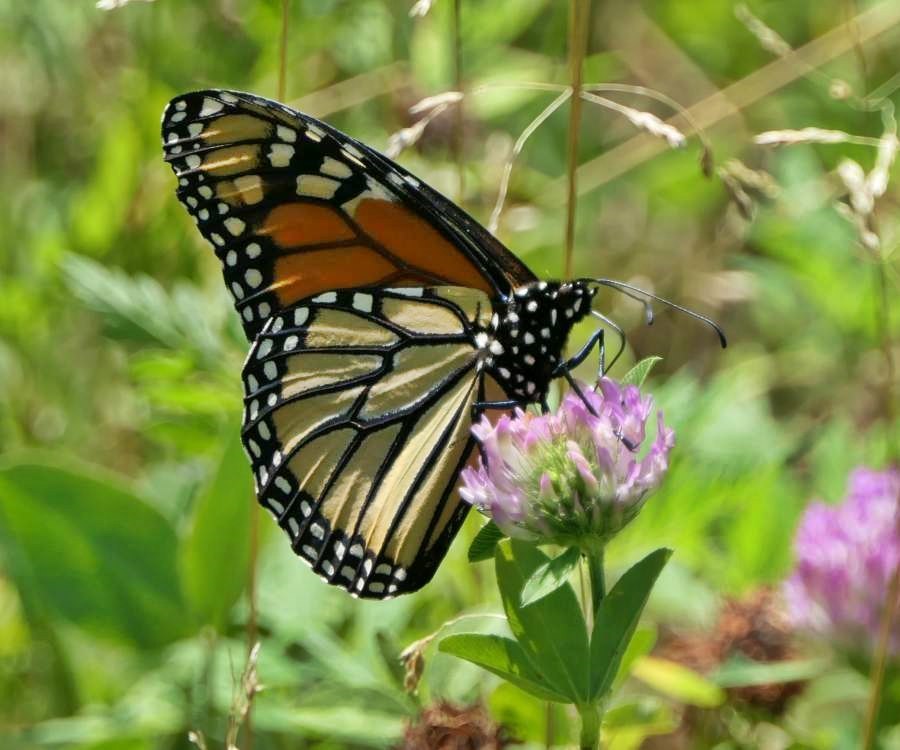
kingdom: Animalia
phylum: Arthropoda
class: Insecta
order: Lepidoptera
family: Nymphalidae
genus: Danaus
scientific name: Danaus plexippus
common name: Monarch
